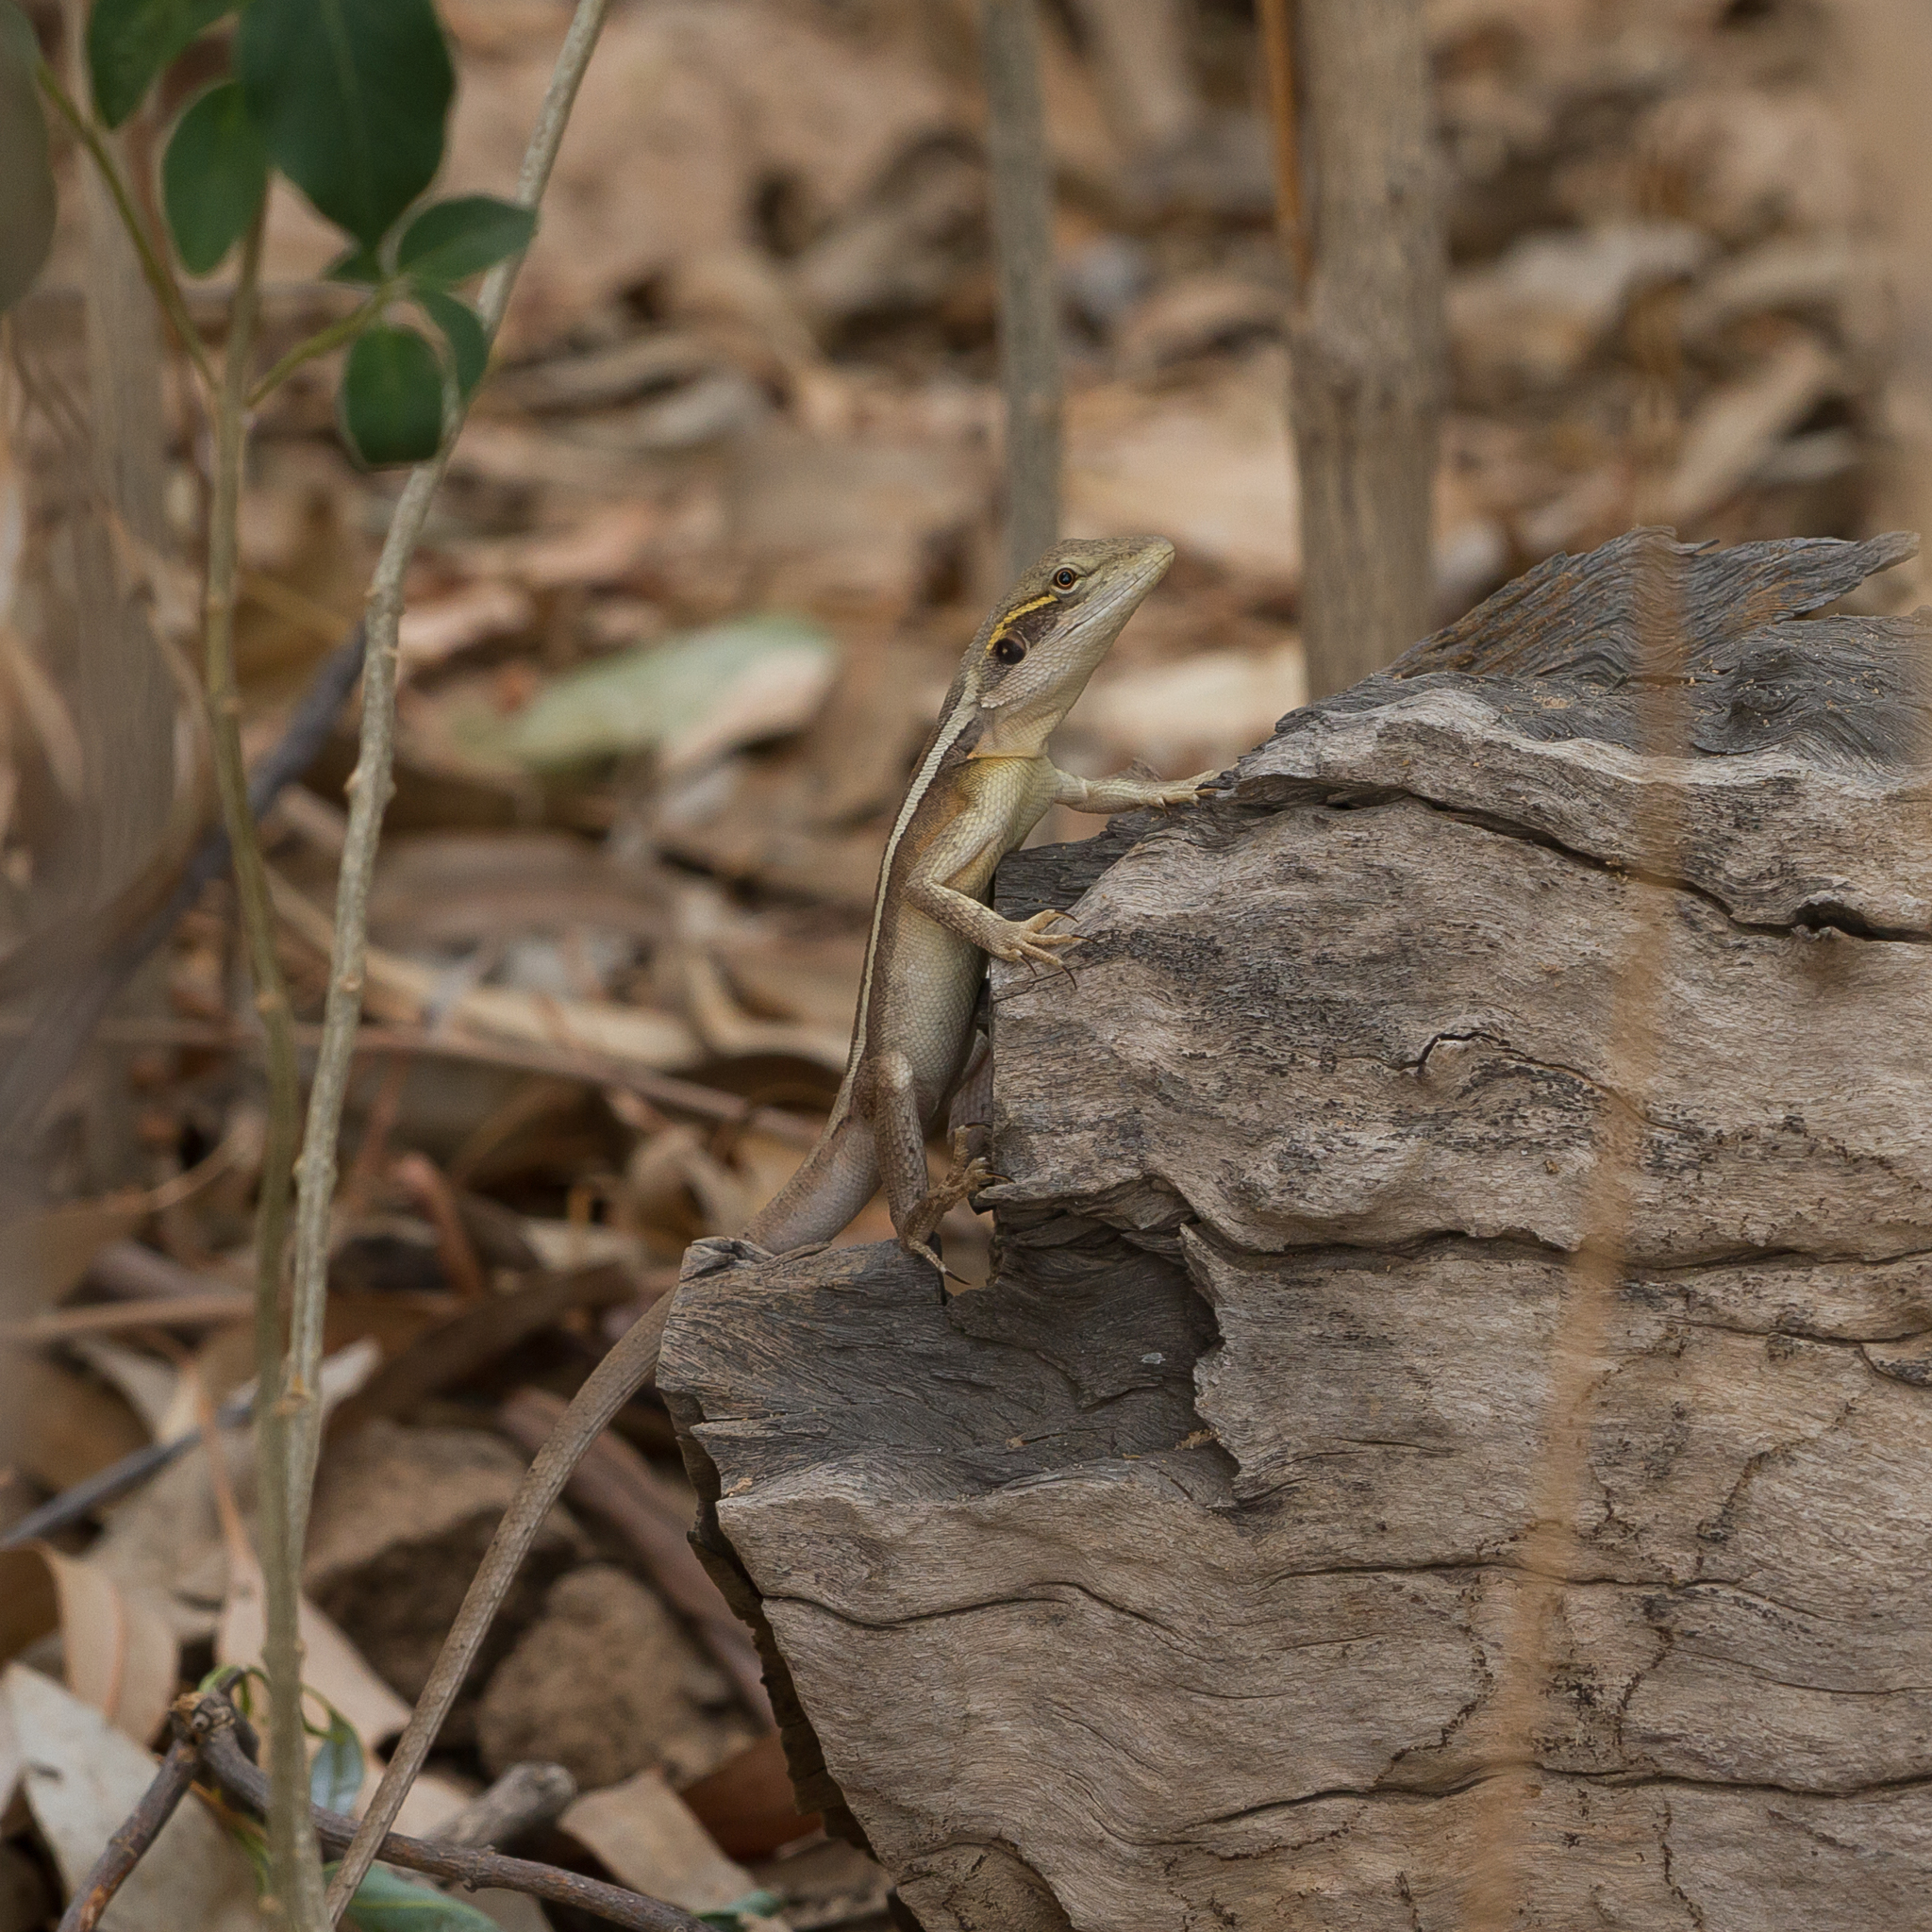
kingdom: Animalia
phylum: Chordata
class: Squamata
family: Agamidae
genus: Lophognathus
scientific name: Lophognathus horneri
